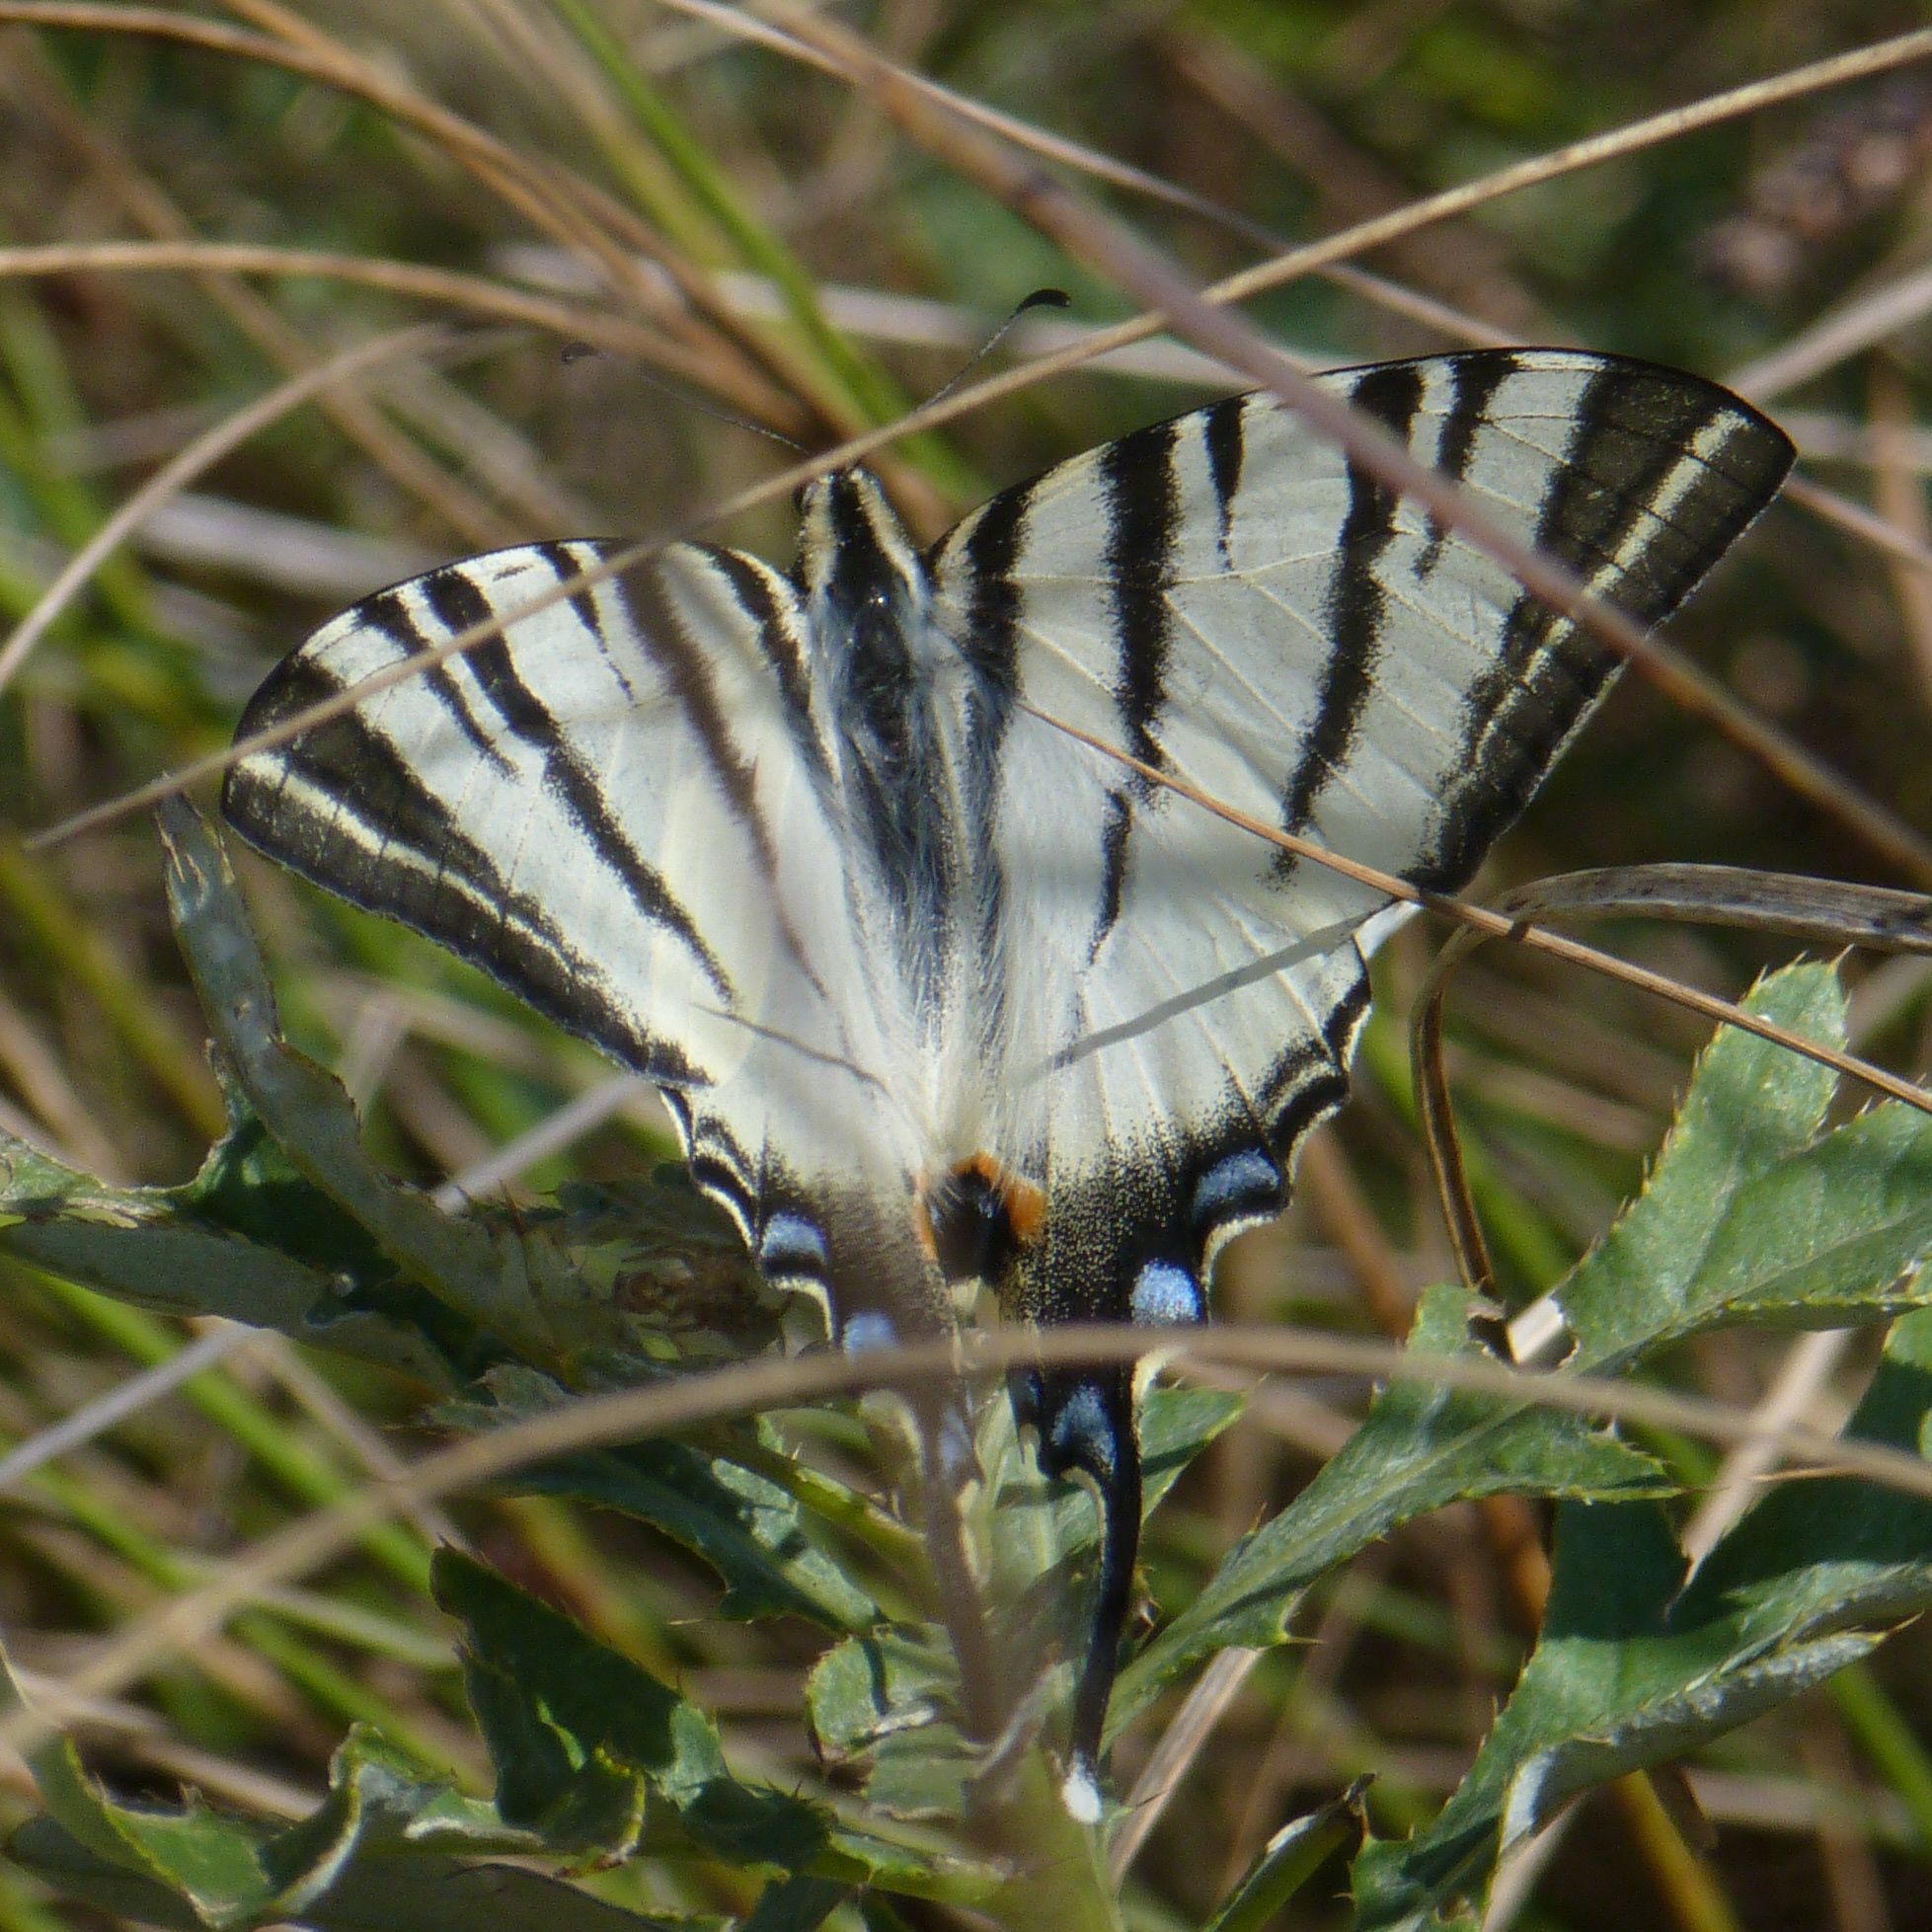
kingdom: Animalia
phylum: Arthropoda
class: Insecta
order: Lepidoptera
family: Papilionidae
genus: Iphiclides
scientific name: Iphiclides podalirius
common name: Scarce swallowtail
